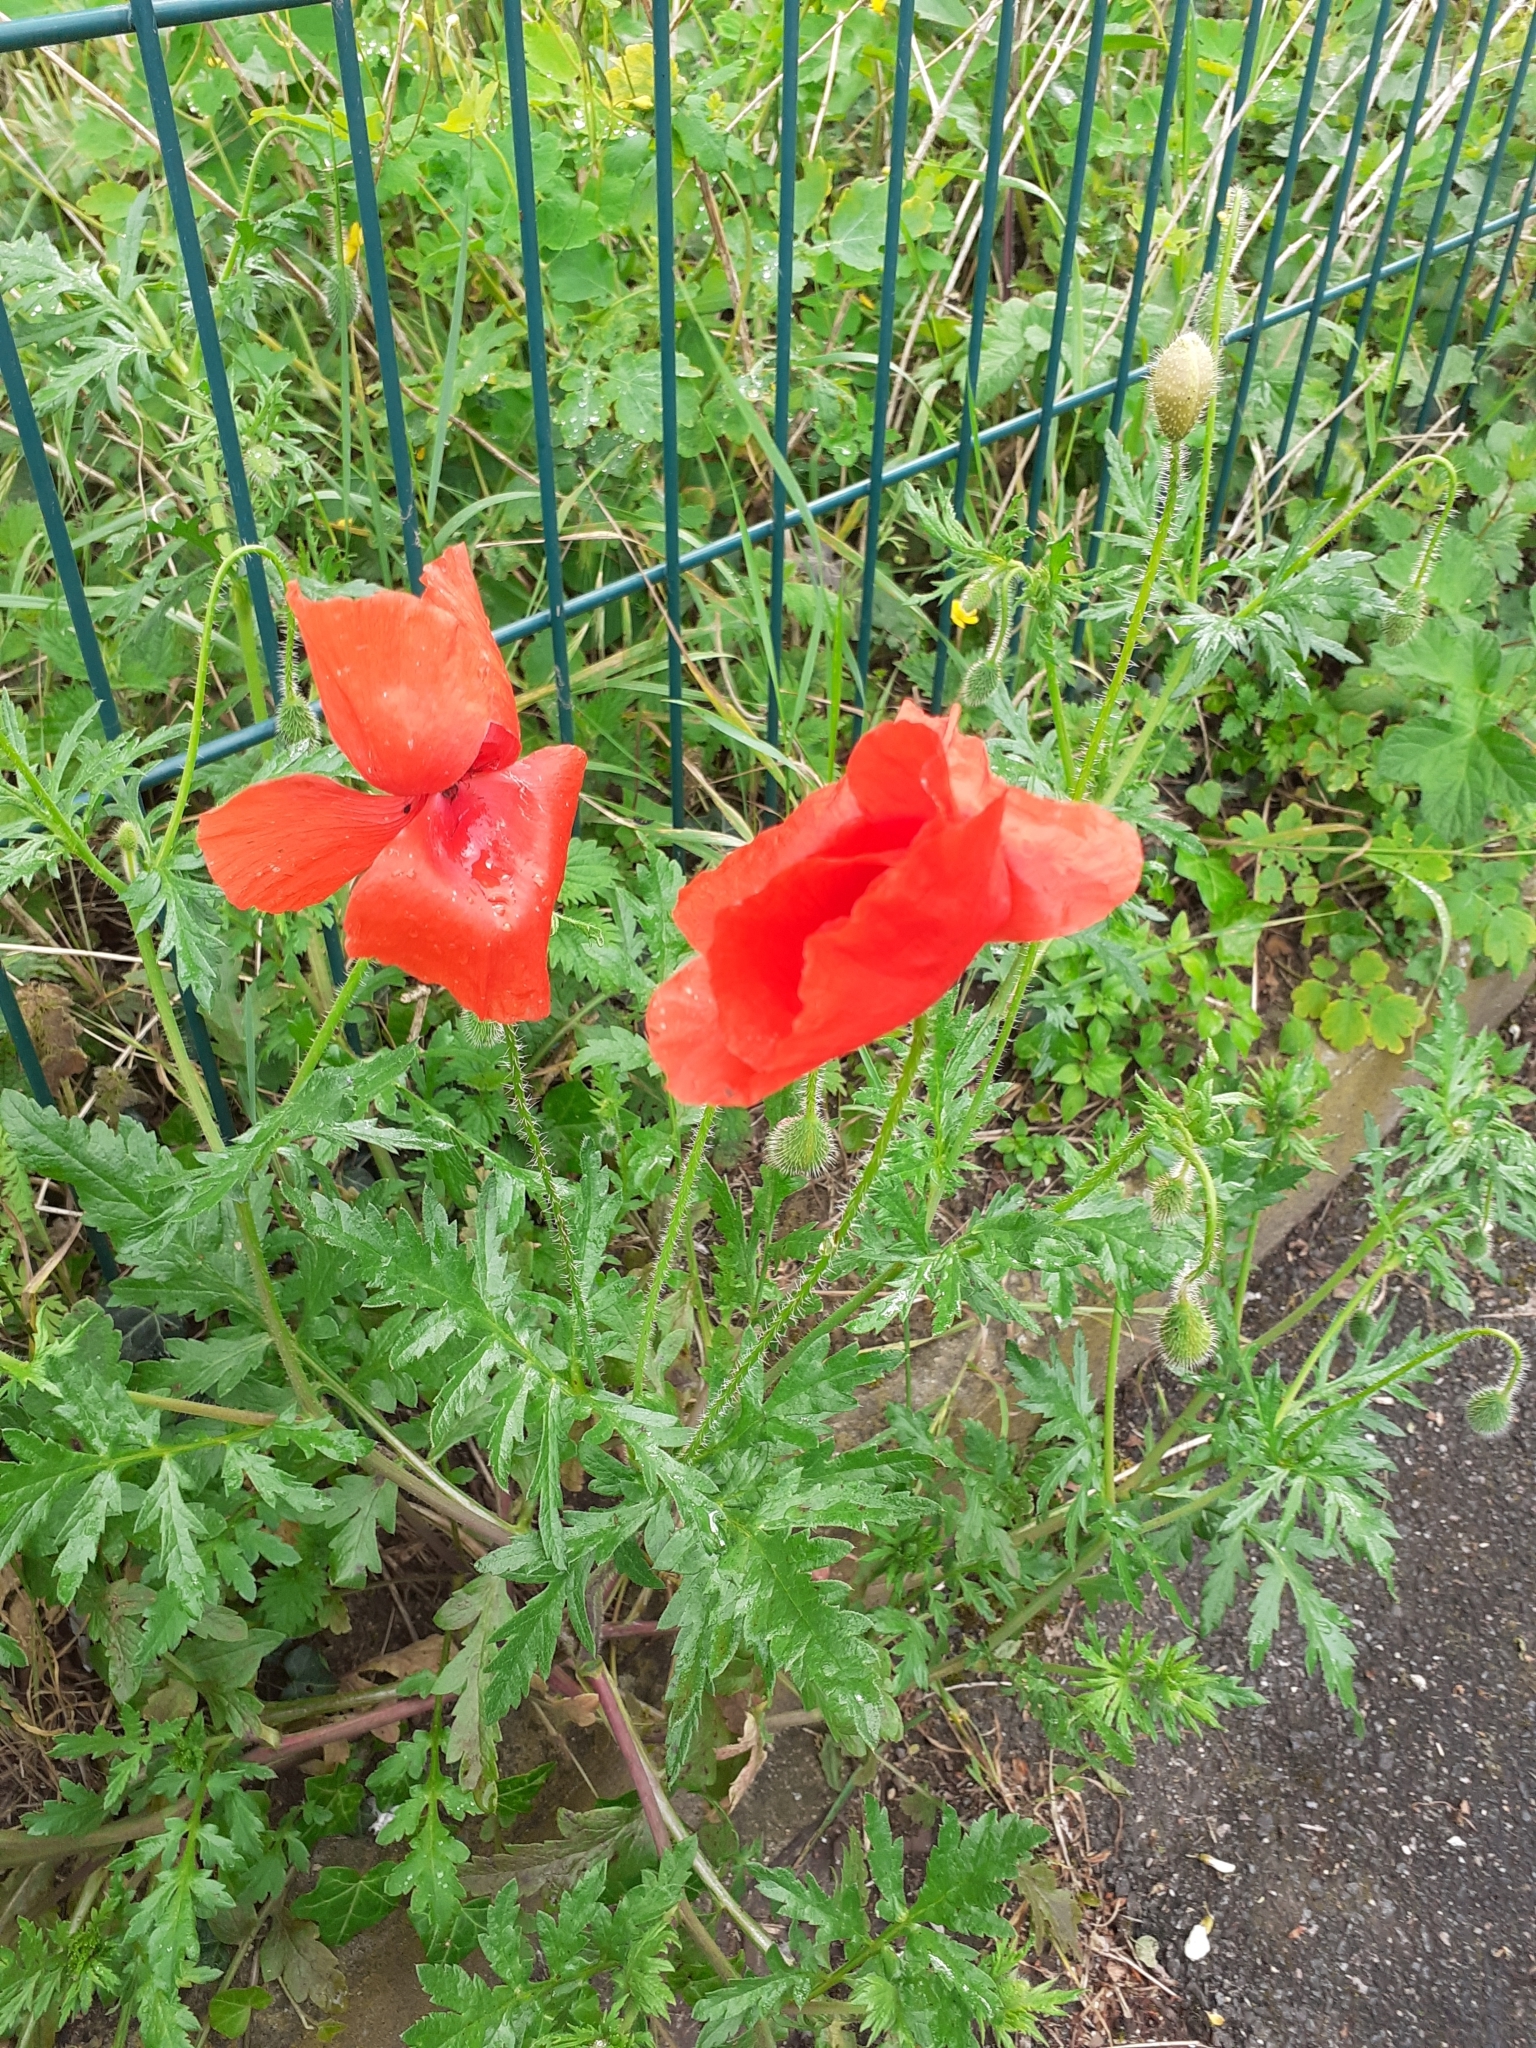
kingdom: Plantae
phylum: Tracheophyta
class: Magnoliopsida
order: Ranunculales
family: Papaveraceae
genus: Papaver
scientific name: Papaver rhoeas
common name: Corn poppy
